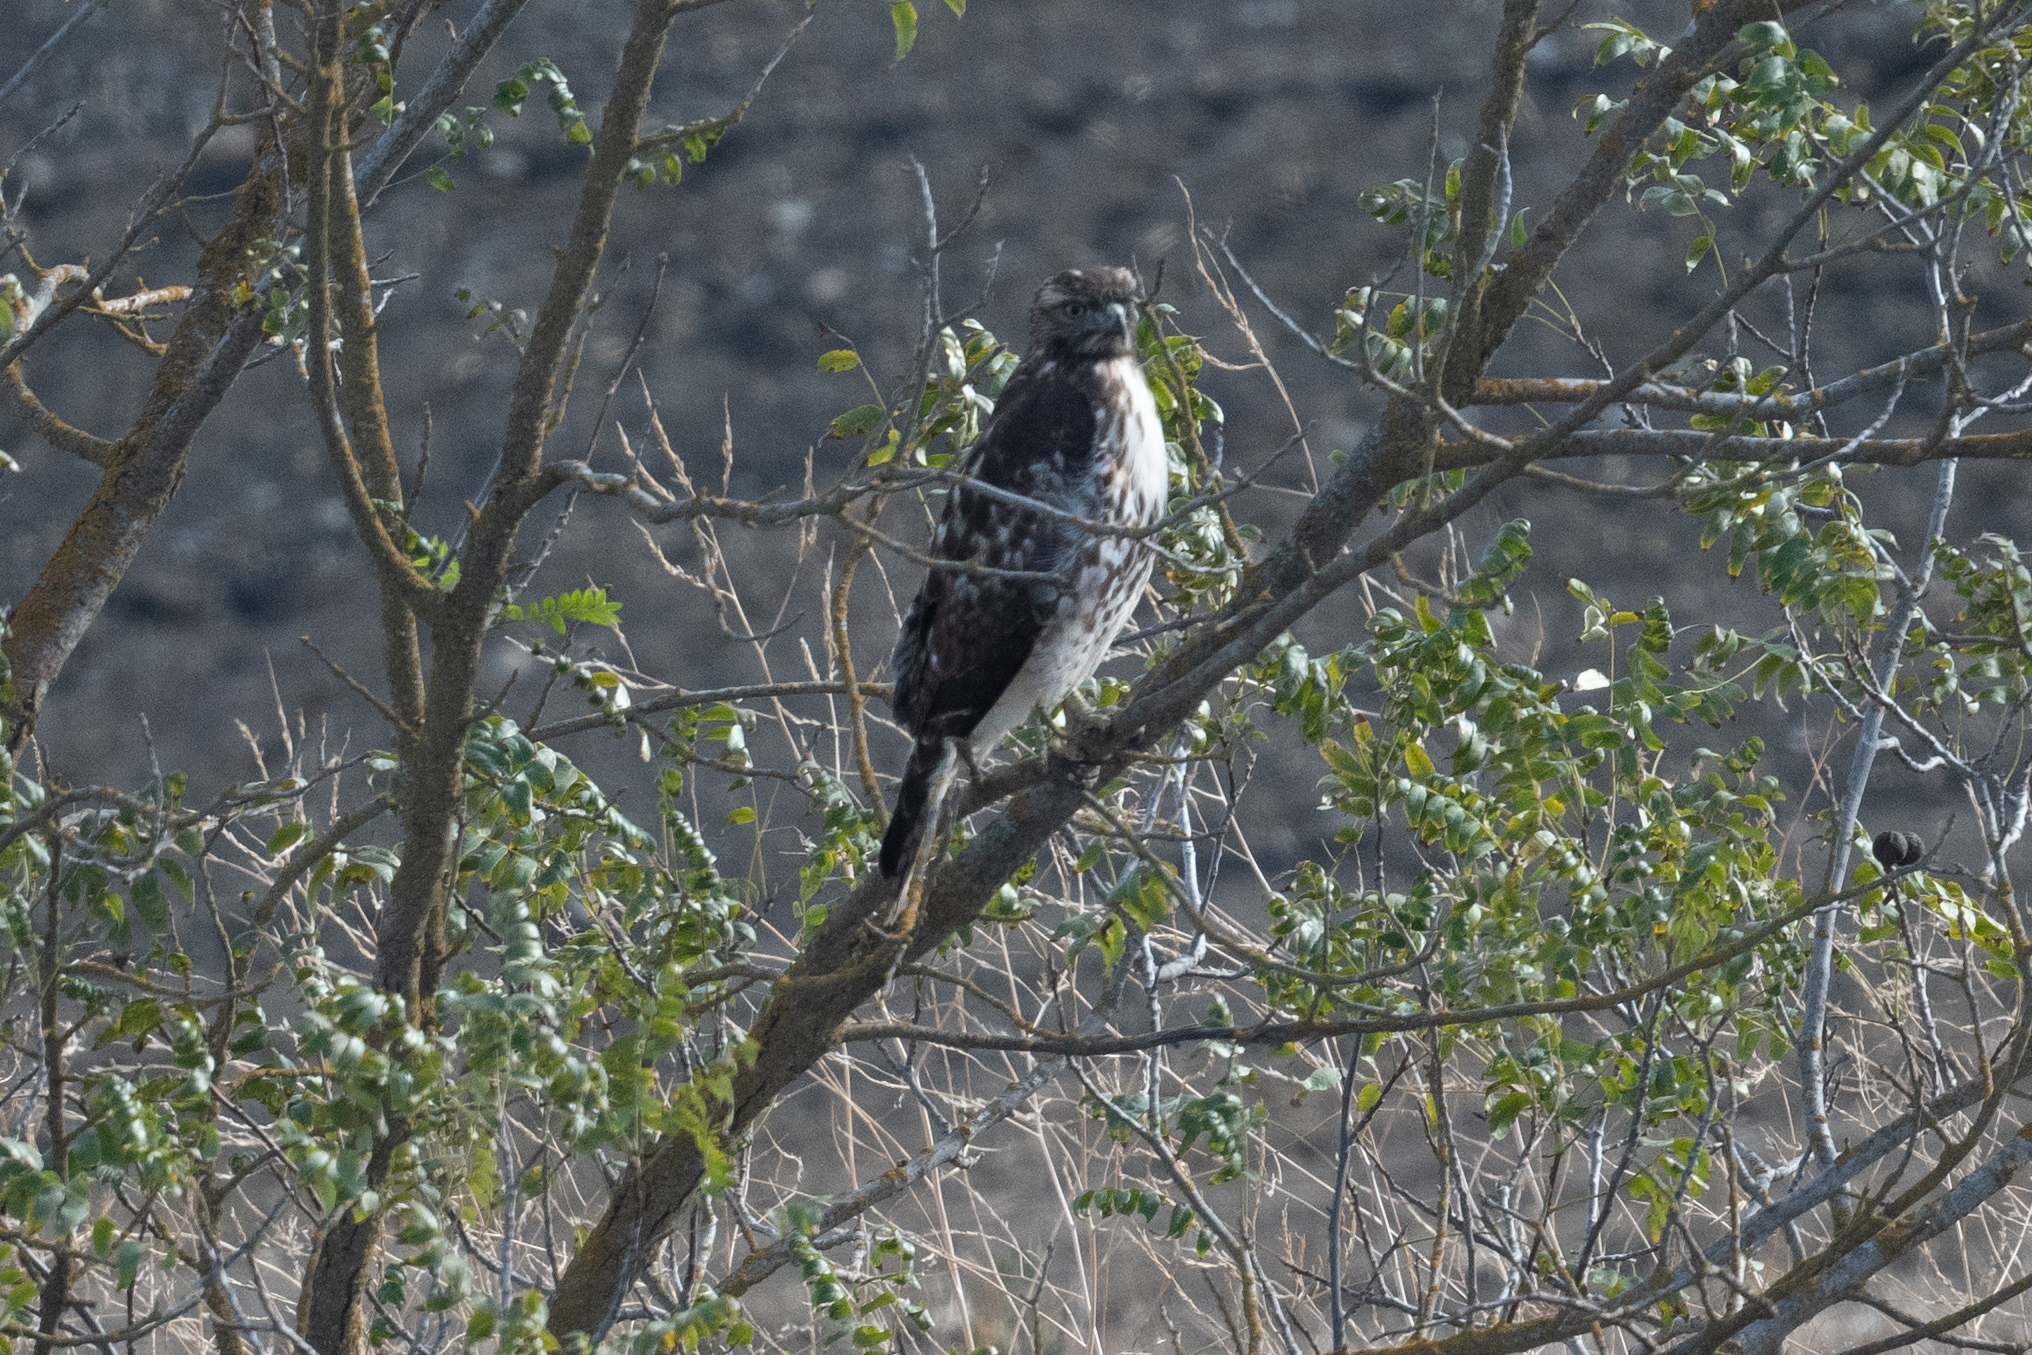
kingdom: Animalia
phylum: Chordata
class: Aves
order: Accipitriformes
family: Accipitridae
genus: Buteo
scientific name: Buteo jamaicensis
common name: Red-tailed hawk
